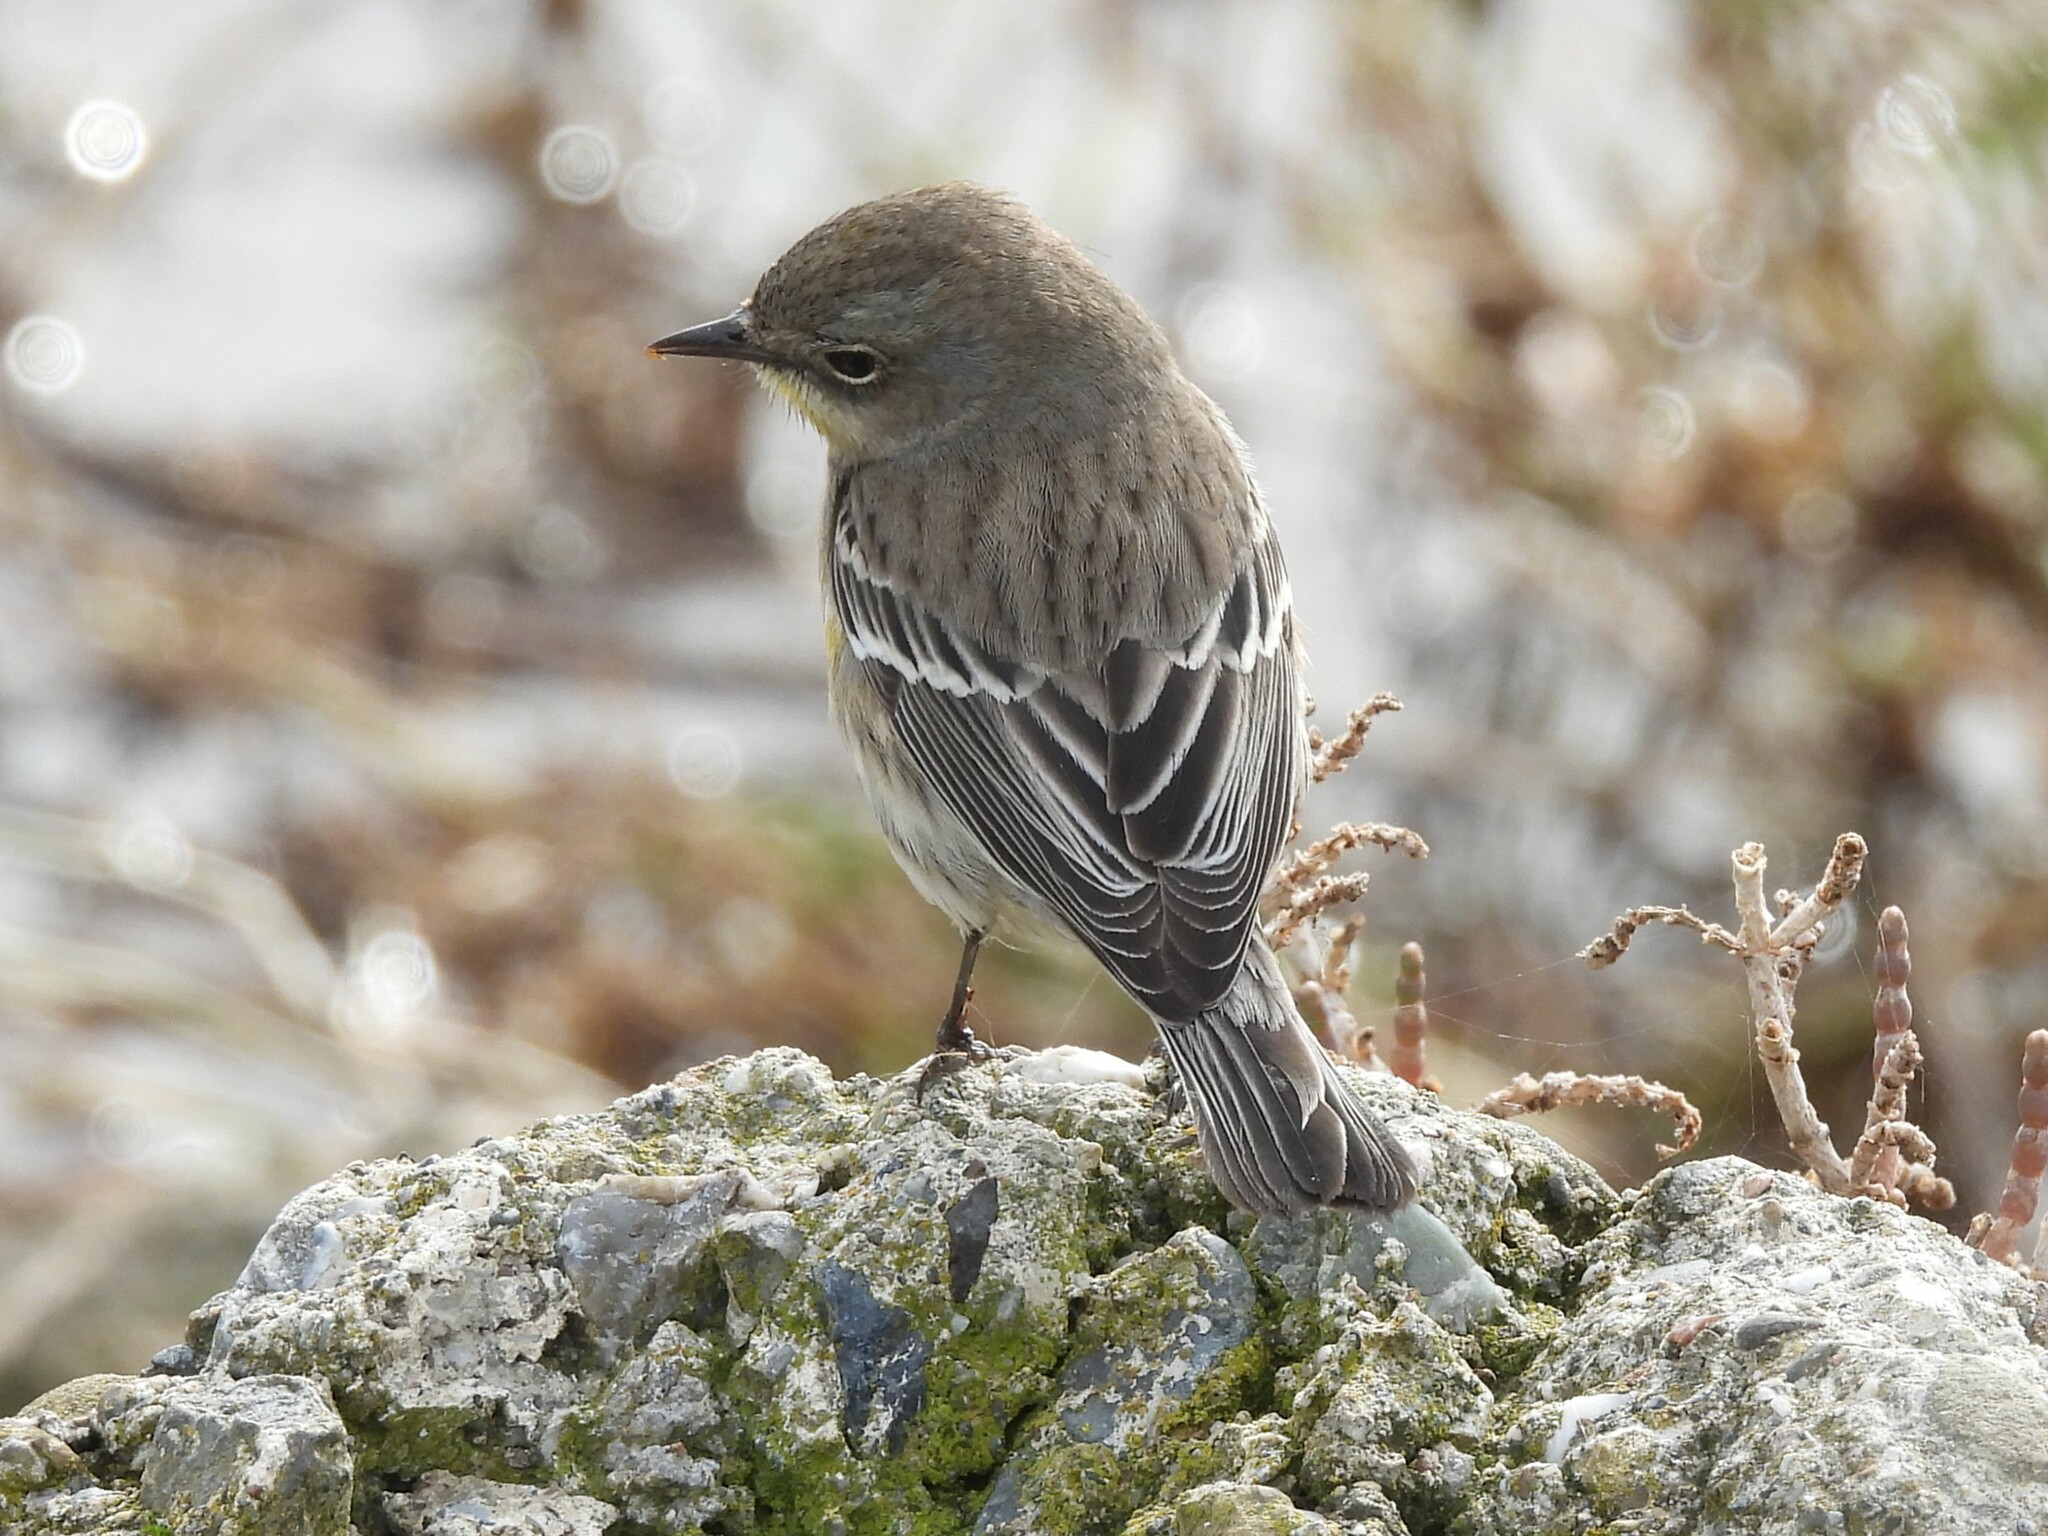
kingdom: Animalia
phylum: Chordata
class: Aves
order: Passeriformes
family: Parulidae
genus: Setophaga
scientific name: Setophaga coronata
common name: Myrtle warbler
